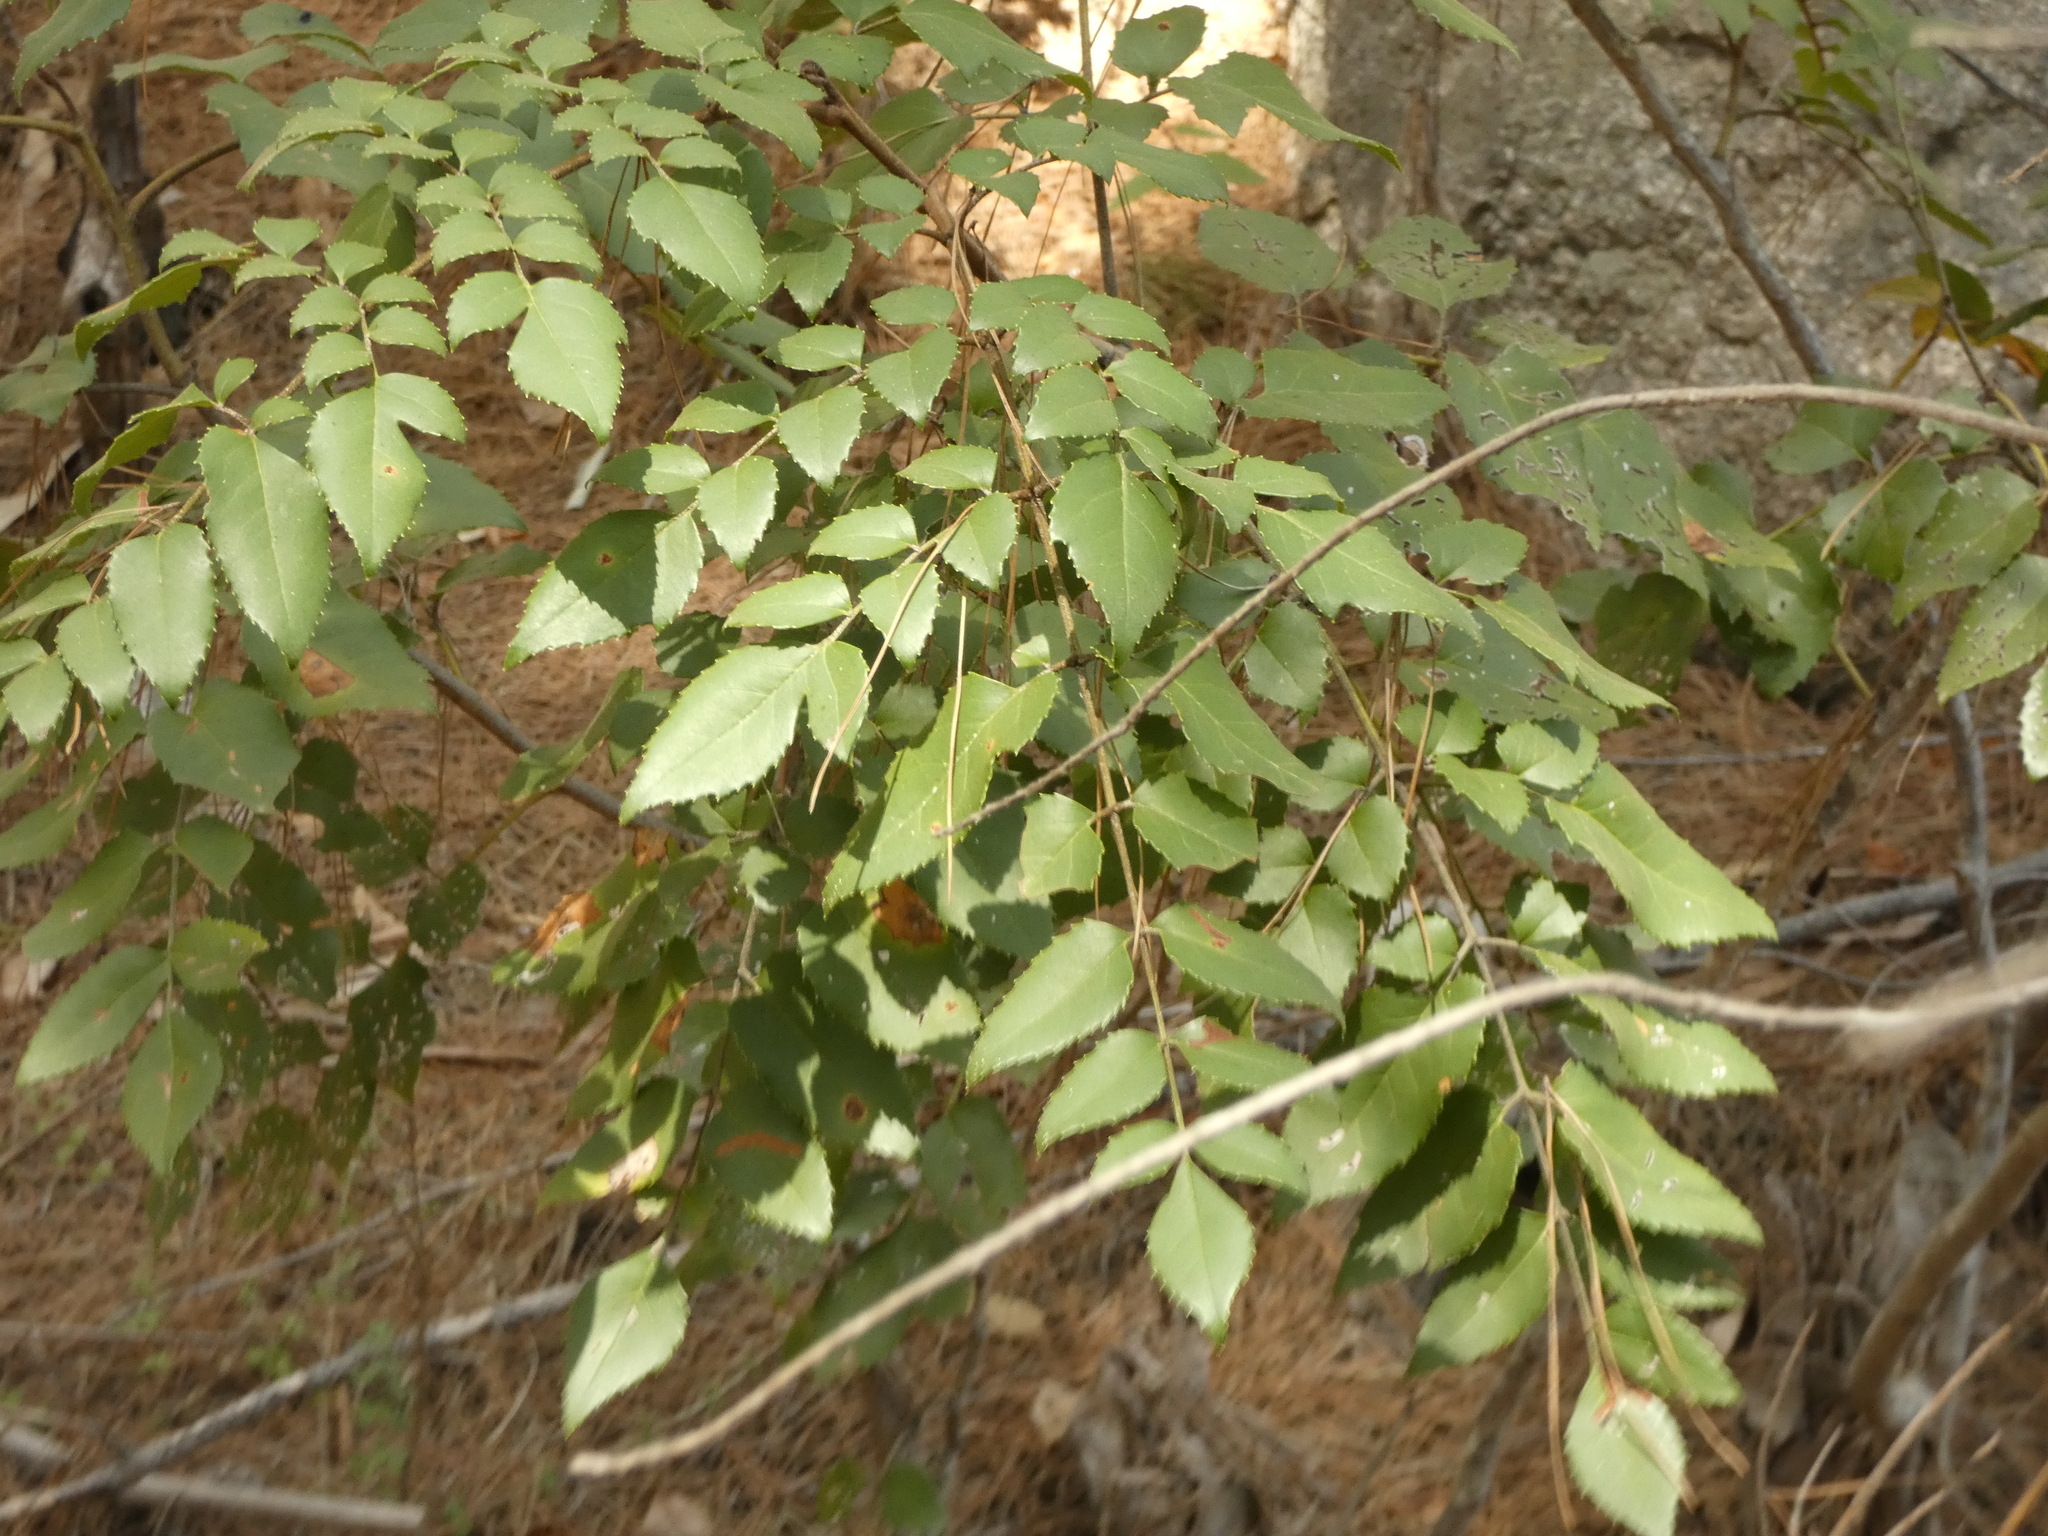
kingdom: Plantae
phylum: Tracheophyta
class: Magnoliopsida
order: Proteales
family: Proteaceae
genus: Gevuina
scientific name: Gevuina avellana
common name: Chilean hazel
